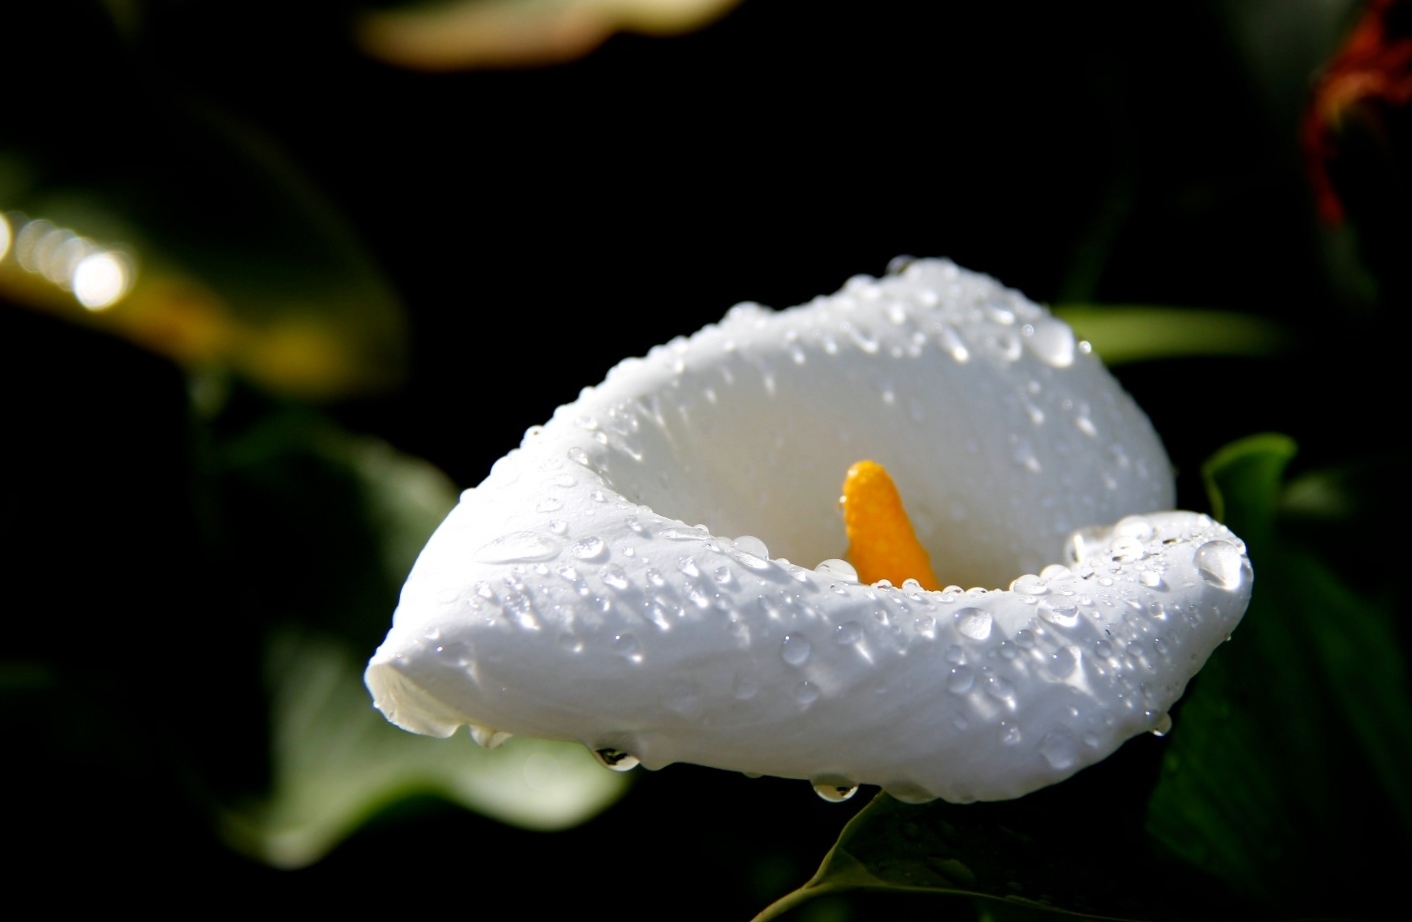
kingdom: Plantae
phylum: Tracheophyta
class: Liliopsida
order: Alismatales
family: Araceae
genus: Zantedeschia
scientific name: Zantedeschia aethiopica
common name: Altar-lily
